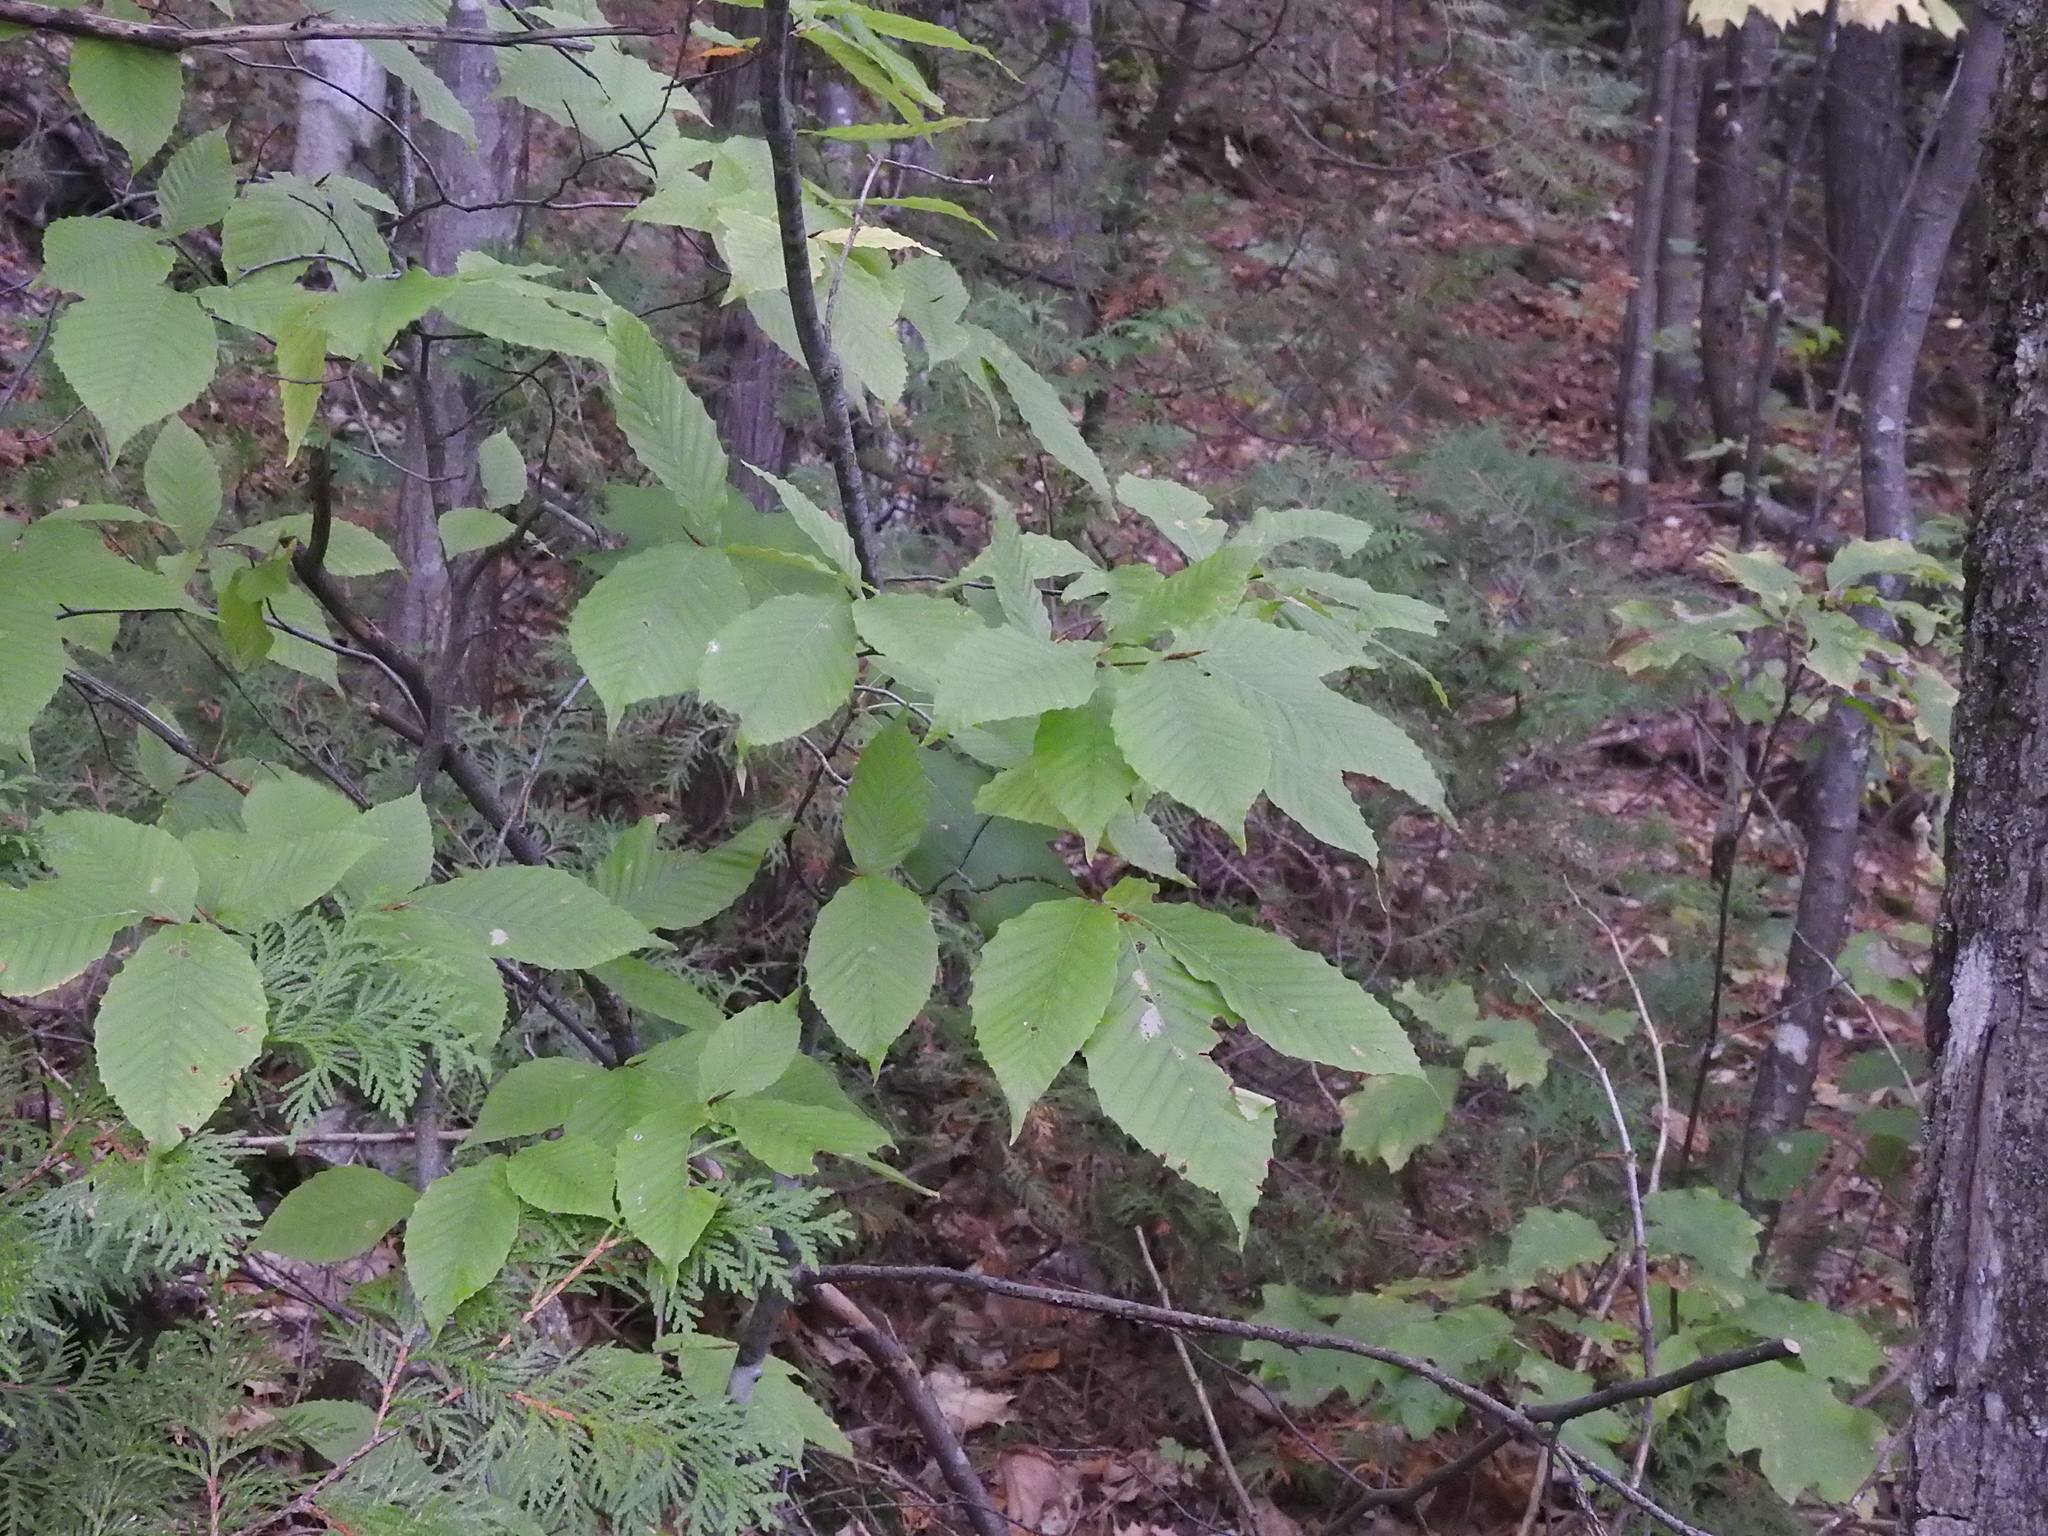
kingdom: Plantae
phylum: Tracheophyta
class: Magnoliopsida
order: Fagales
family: Fagaceae
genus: Fagus
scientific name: Fagus grandifolia
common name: American beech
